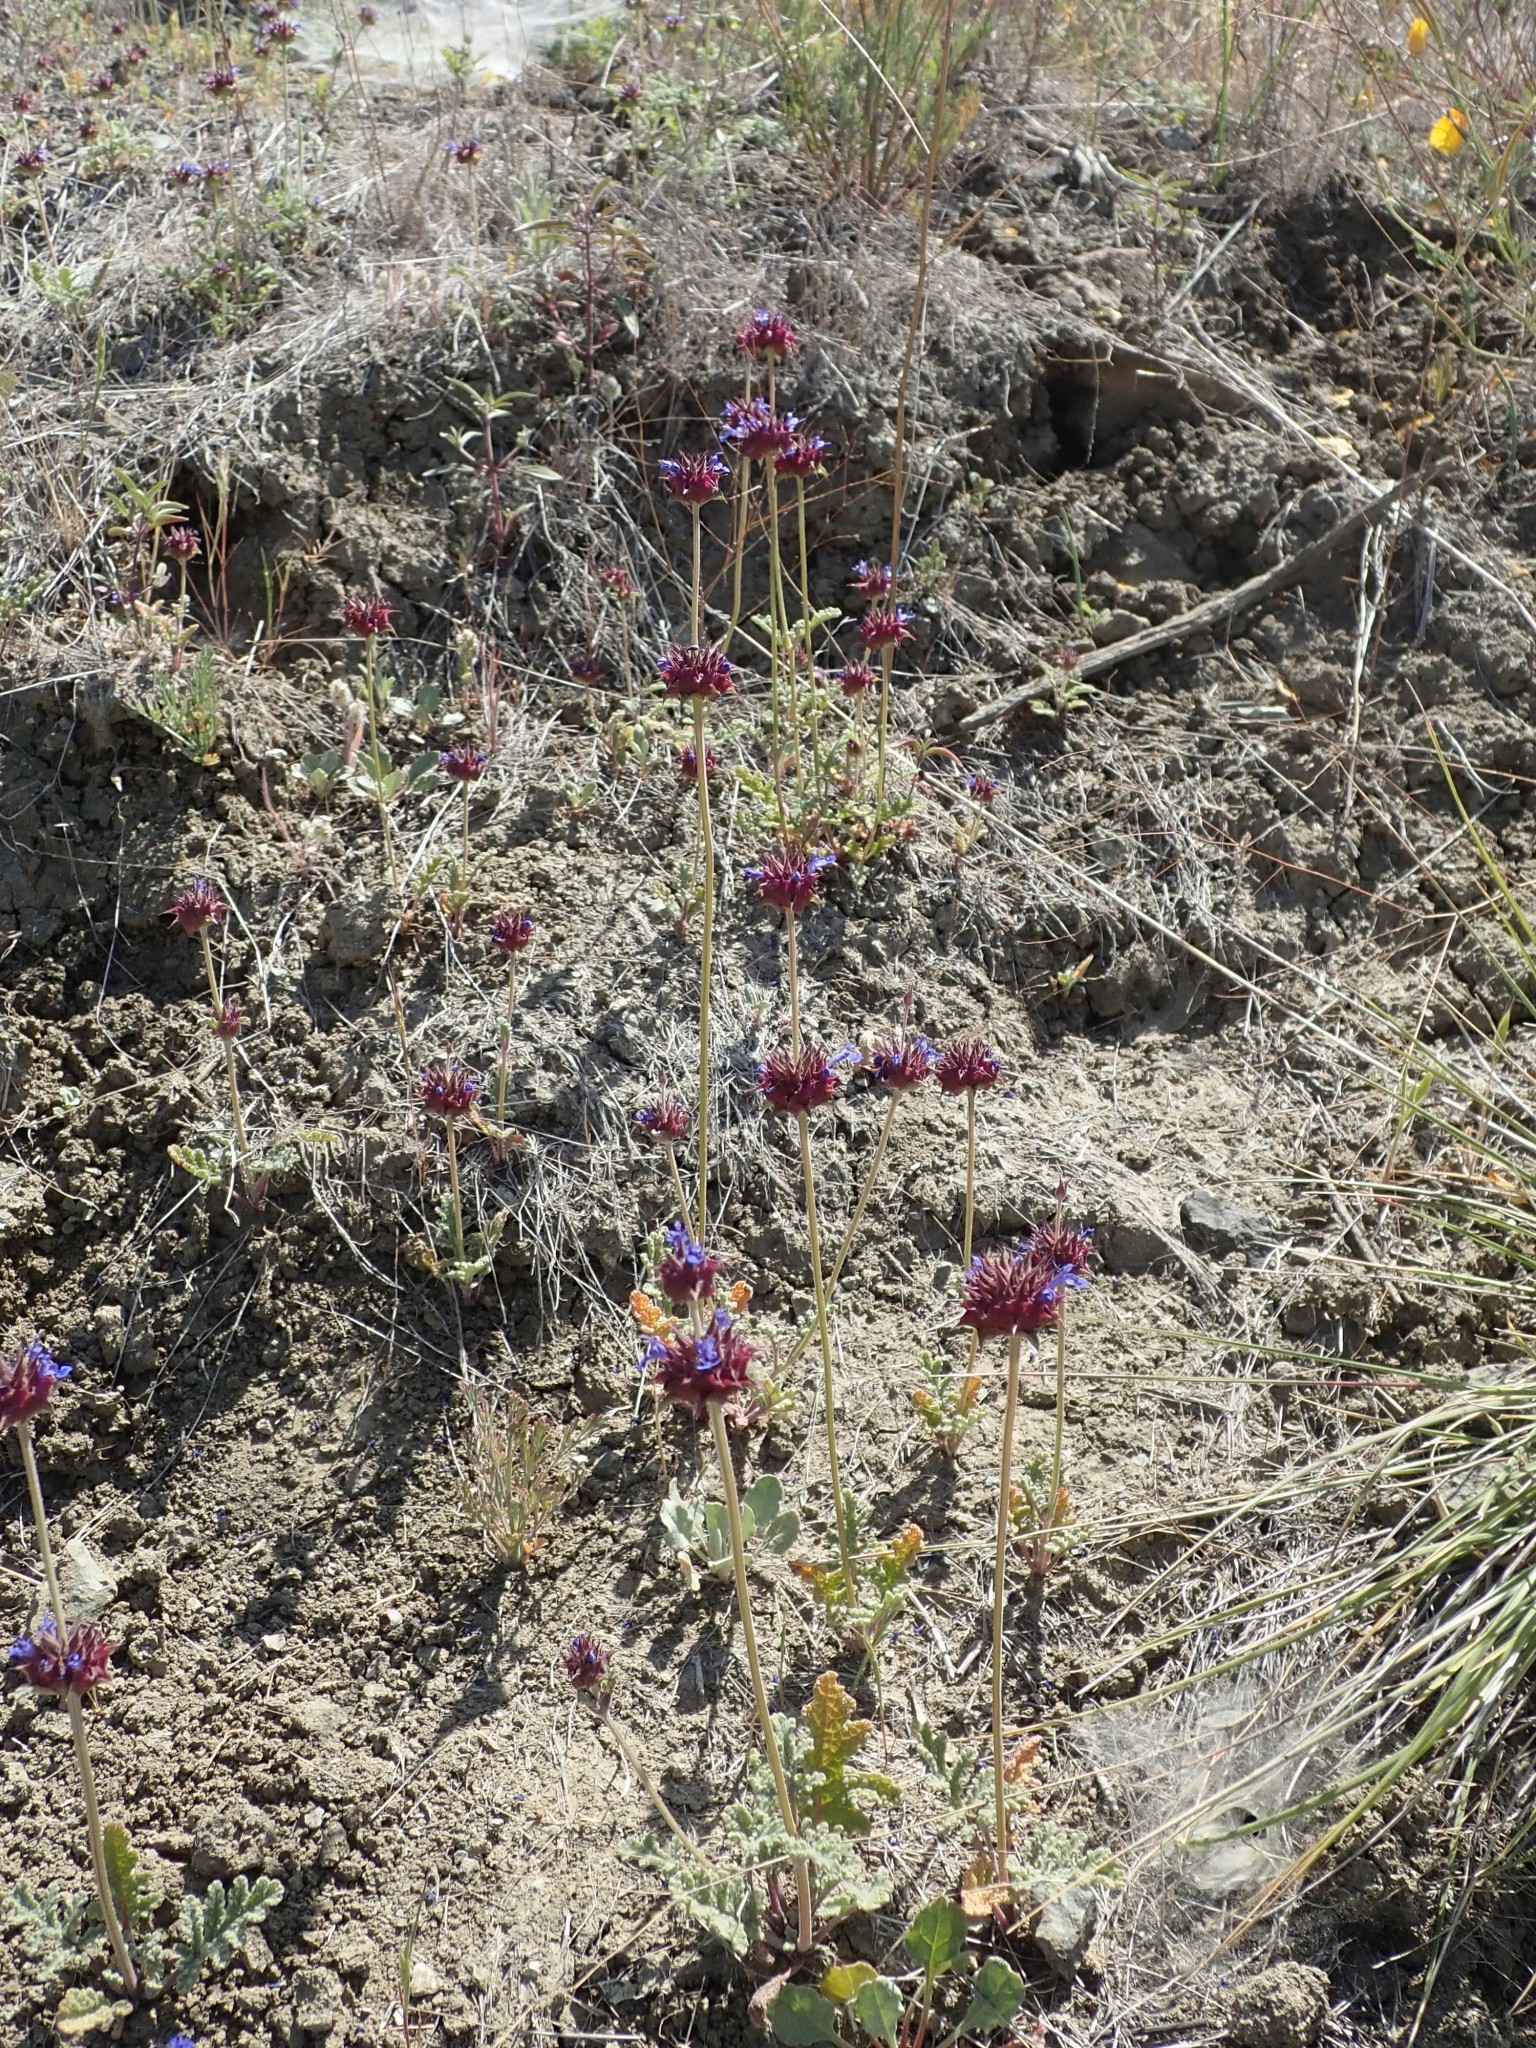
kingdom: Plantae
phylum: Tracheophyta
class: Magnoliopsida
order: Lamiales
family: Lamiaceae
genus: Salvia
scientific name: Salvia columbariae
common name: Chia
